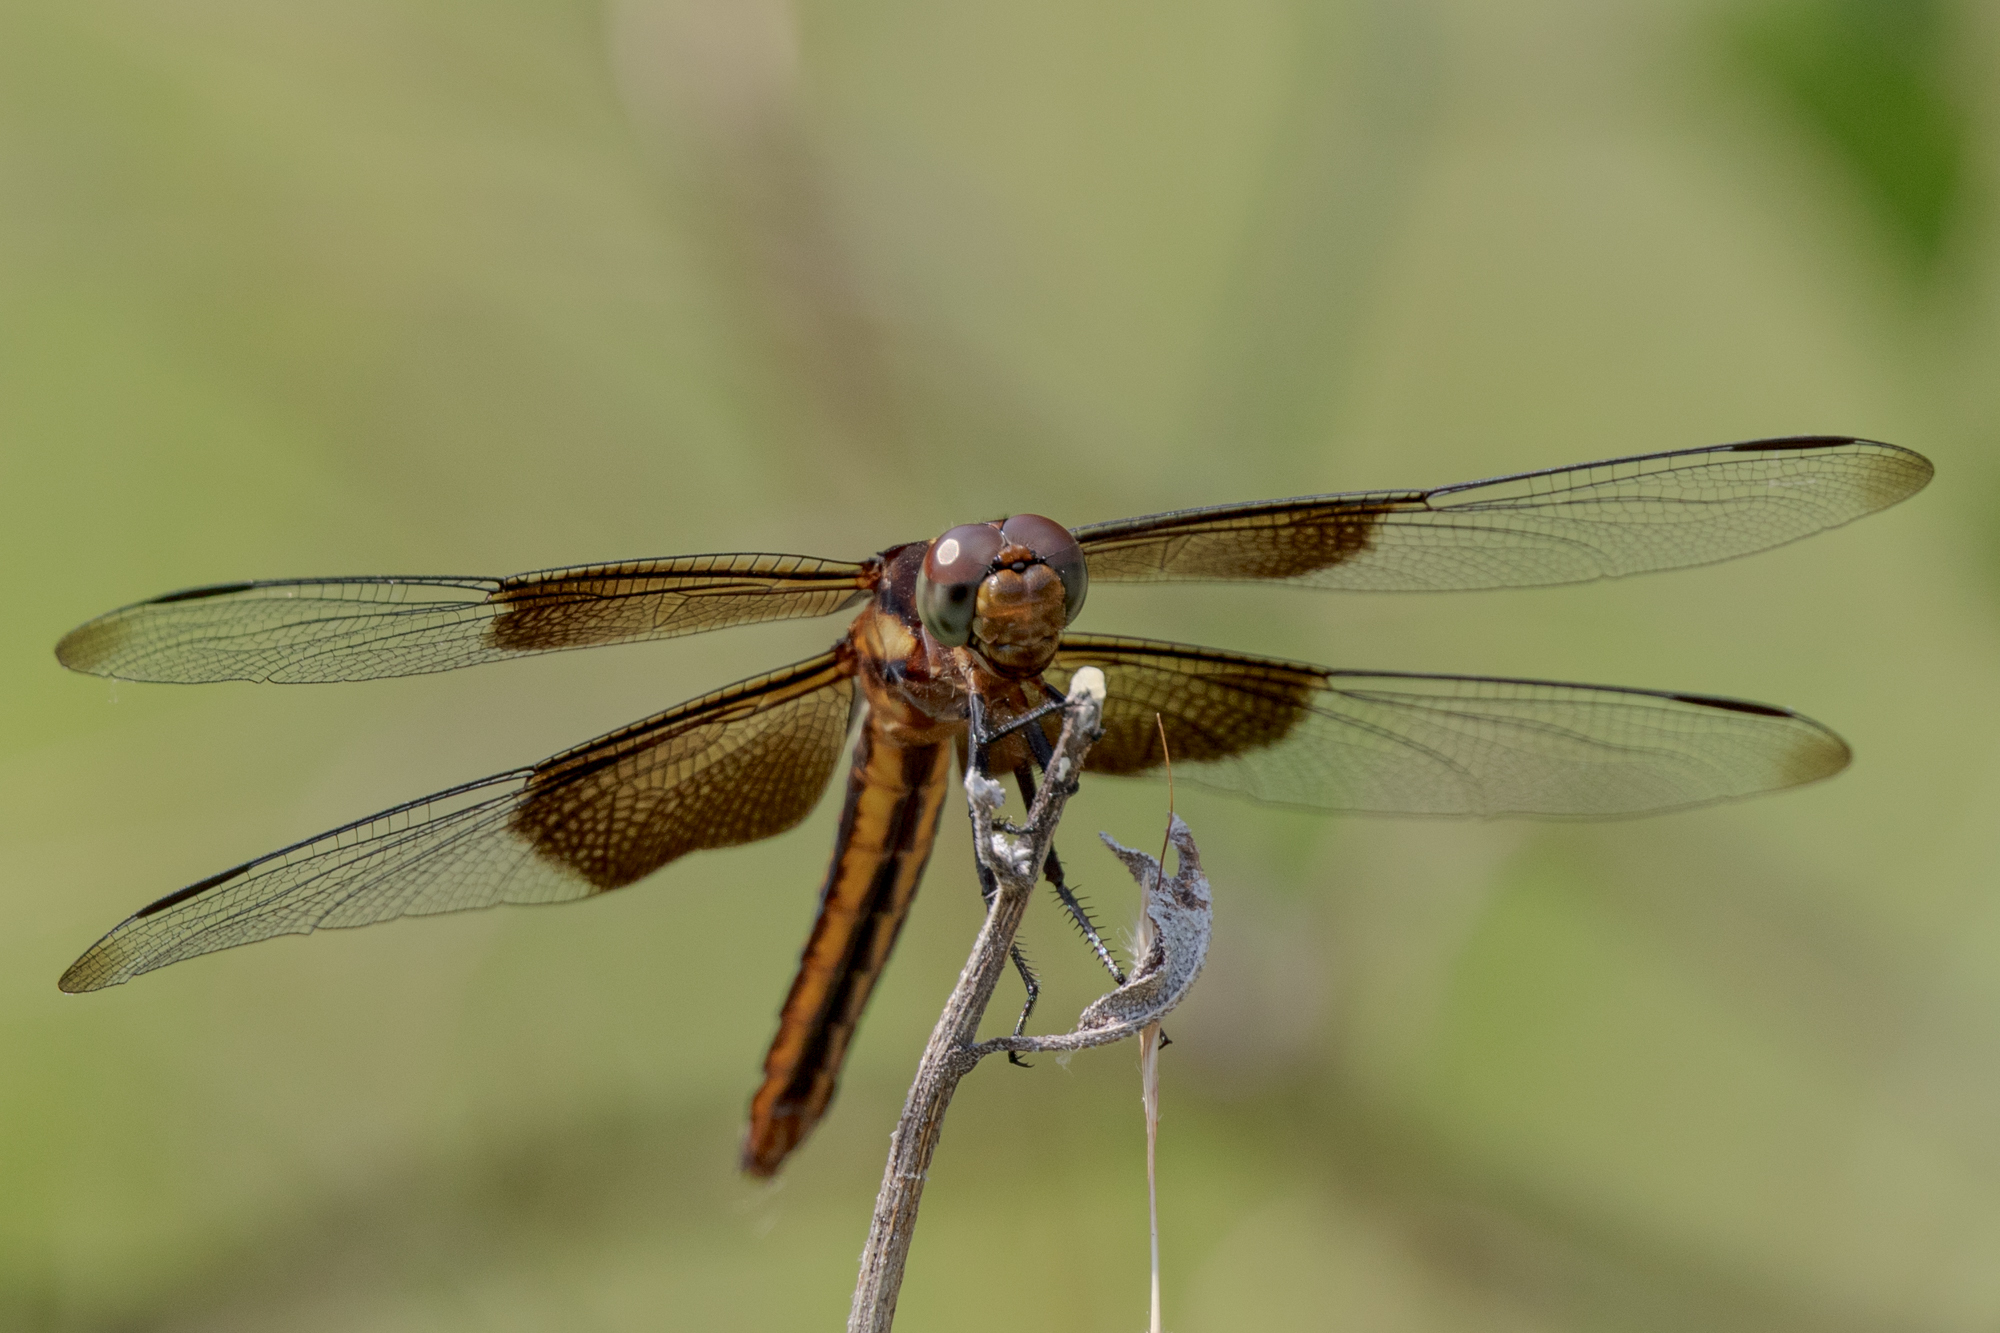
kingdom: Animalia
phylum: Arthropoda
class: Insecta
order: Odonata
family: Libellulidae
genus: Libellula
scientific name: Libellula luctuosa
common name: Widow skimmer
